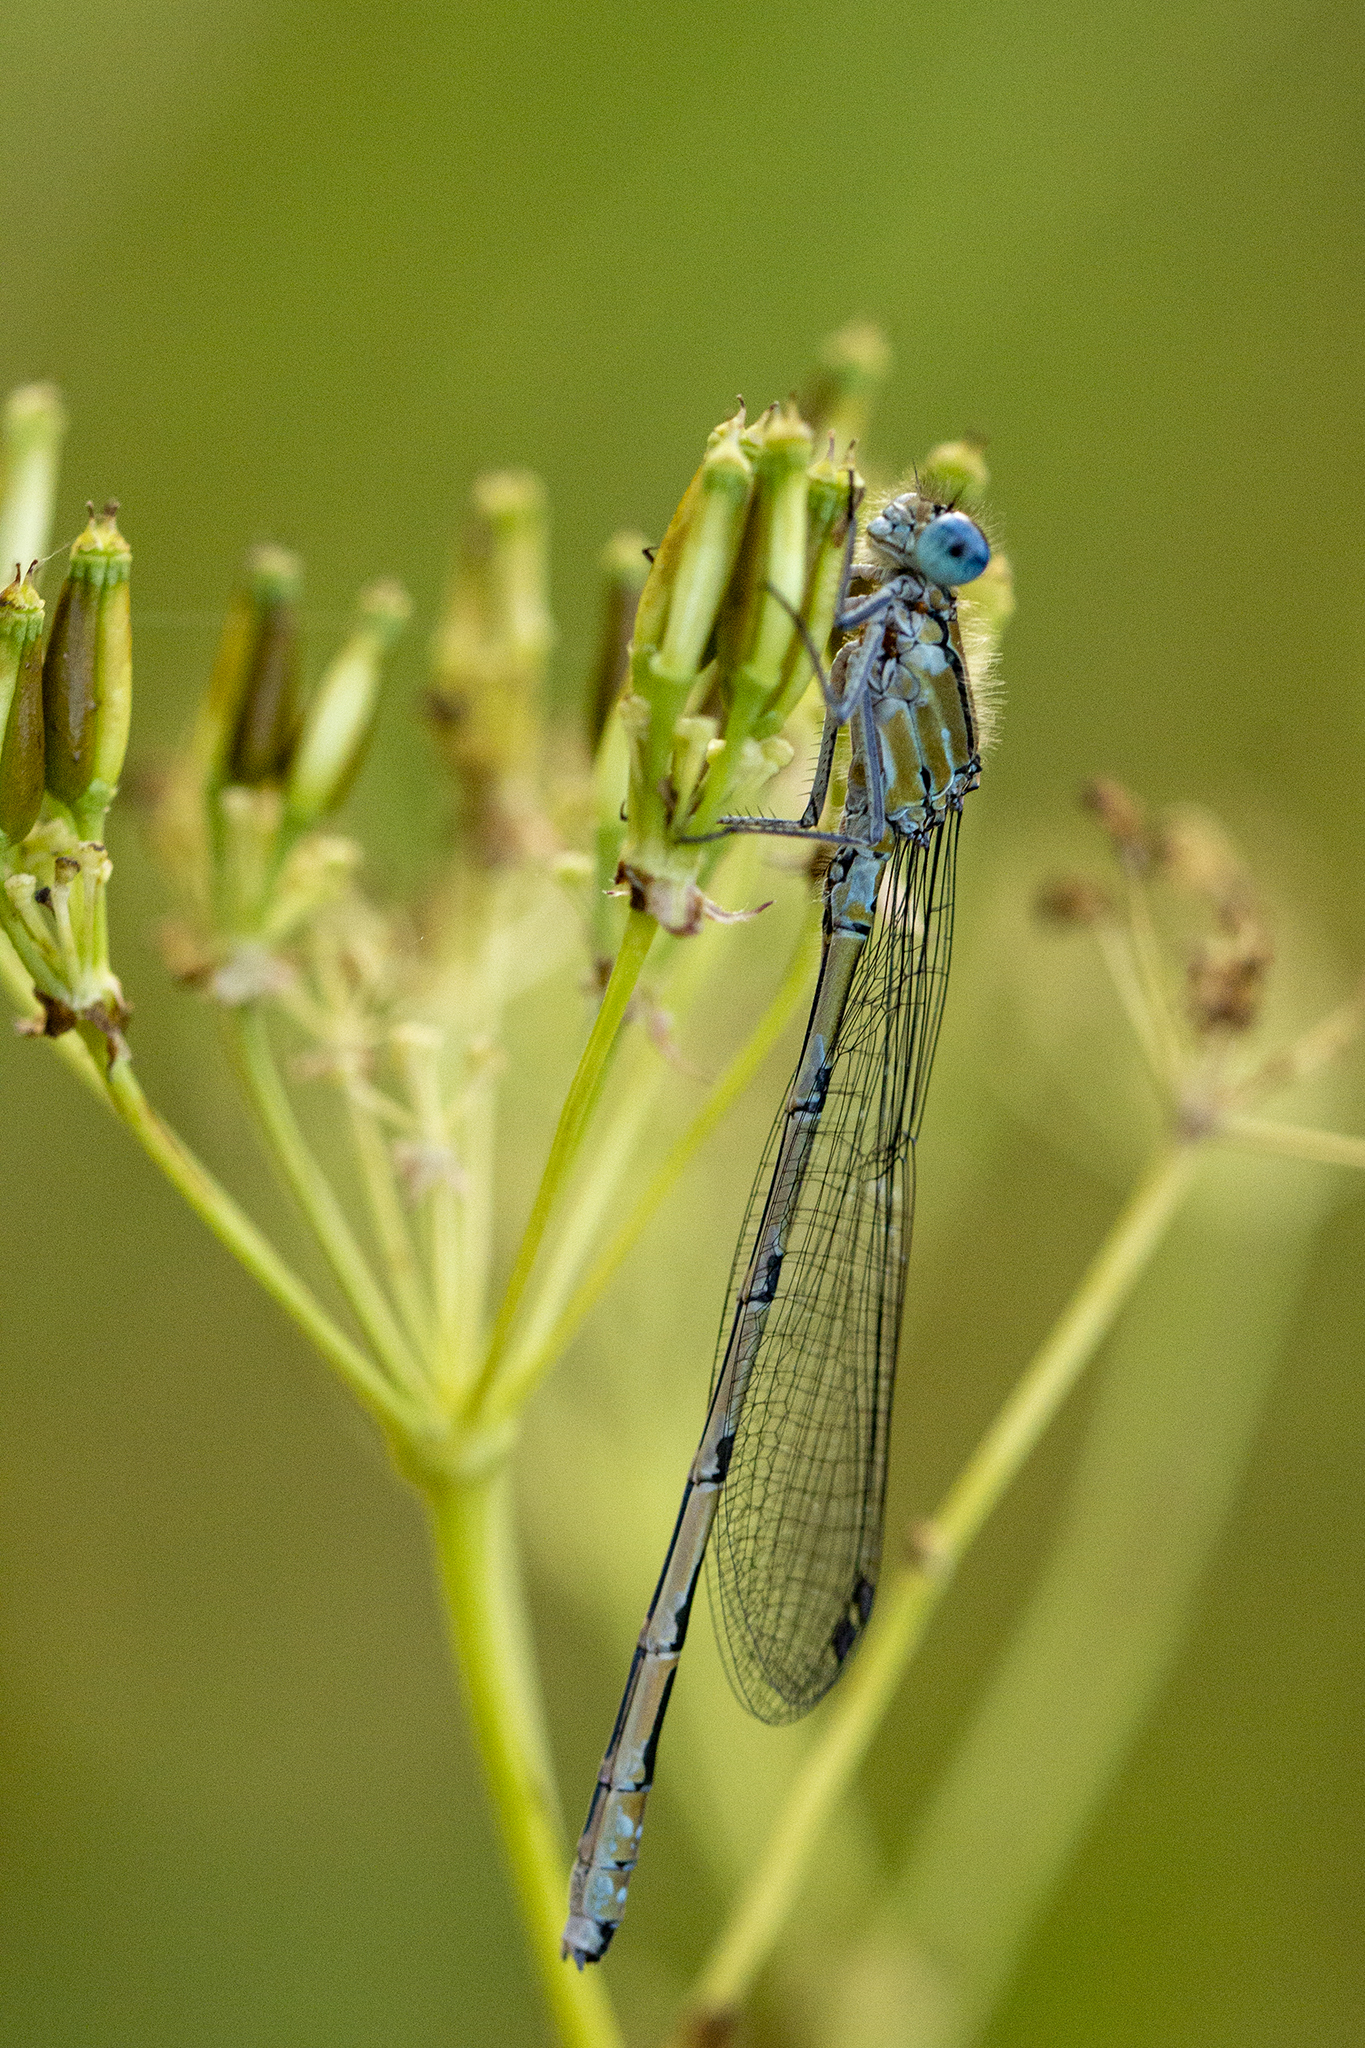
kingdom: Animalia
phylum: Arthropoda
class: Insecta
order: Odonata
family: Coenagrionidae
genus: Enallagma
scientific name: Enallagma cyathigerum
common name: Common blue damselfly
